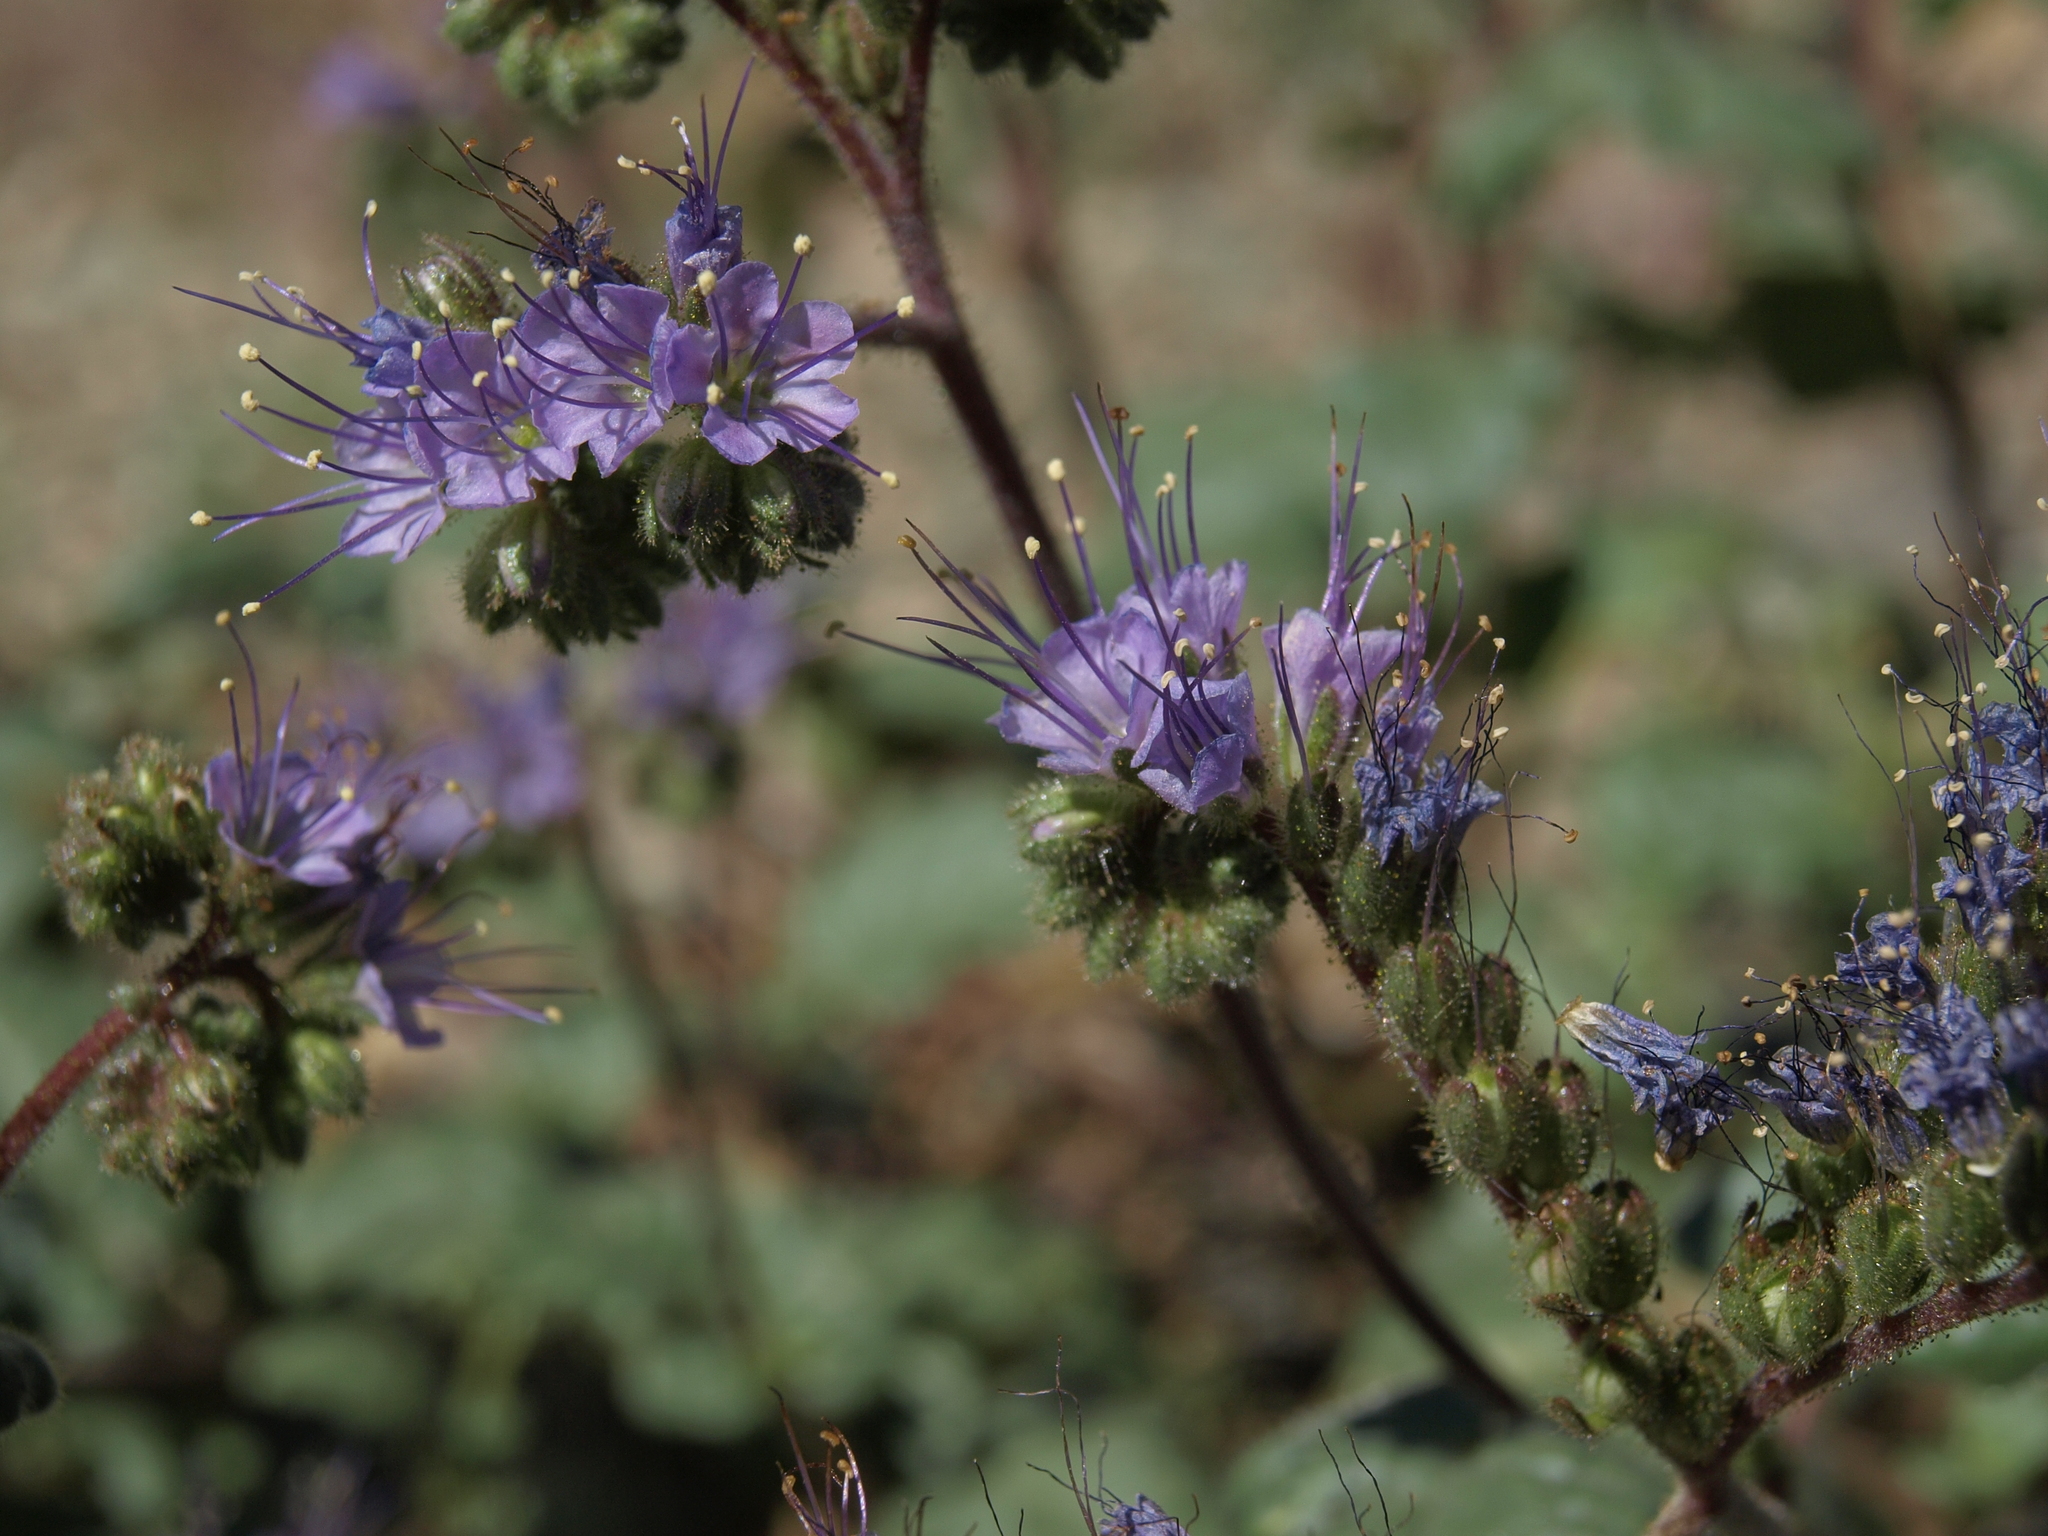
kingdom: Plantae
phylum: Tracheophyta
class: Magnoliopsida
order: Boraginales
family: Hydrophyllaceae
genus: Phacelia
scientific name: Phacelia crenulata
